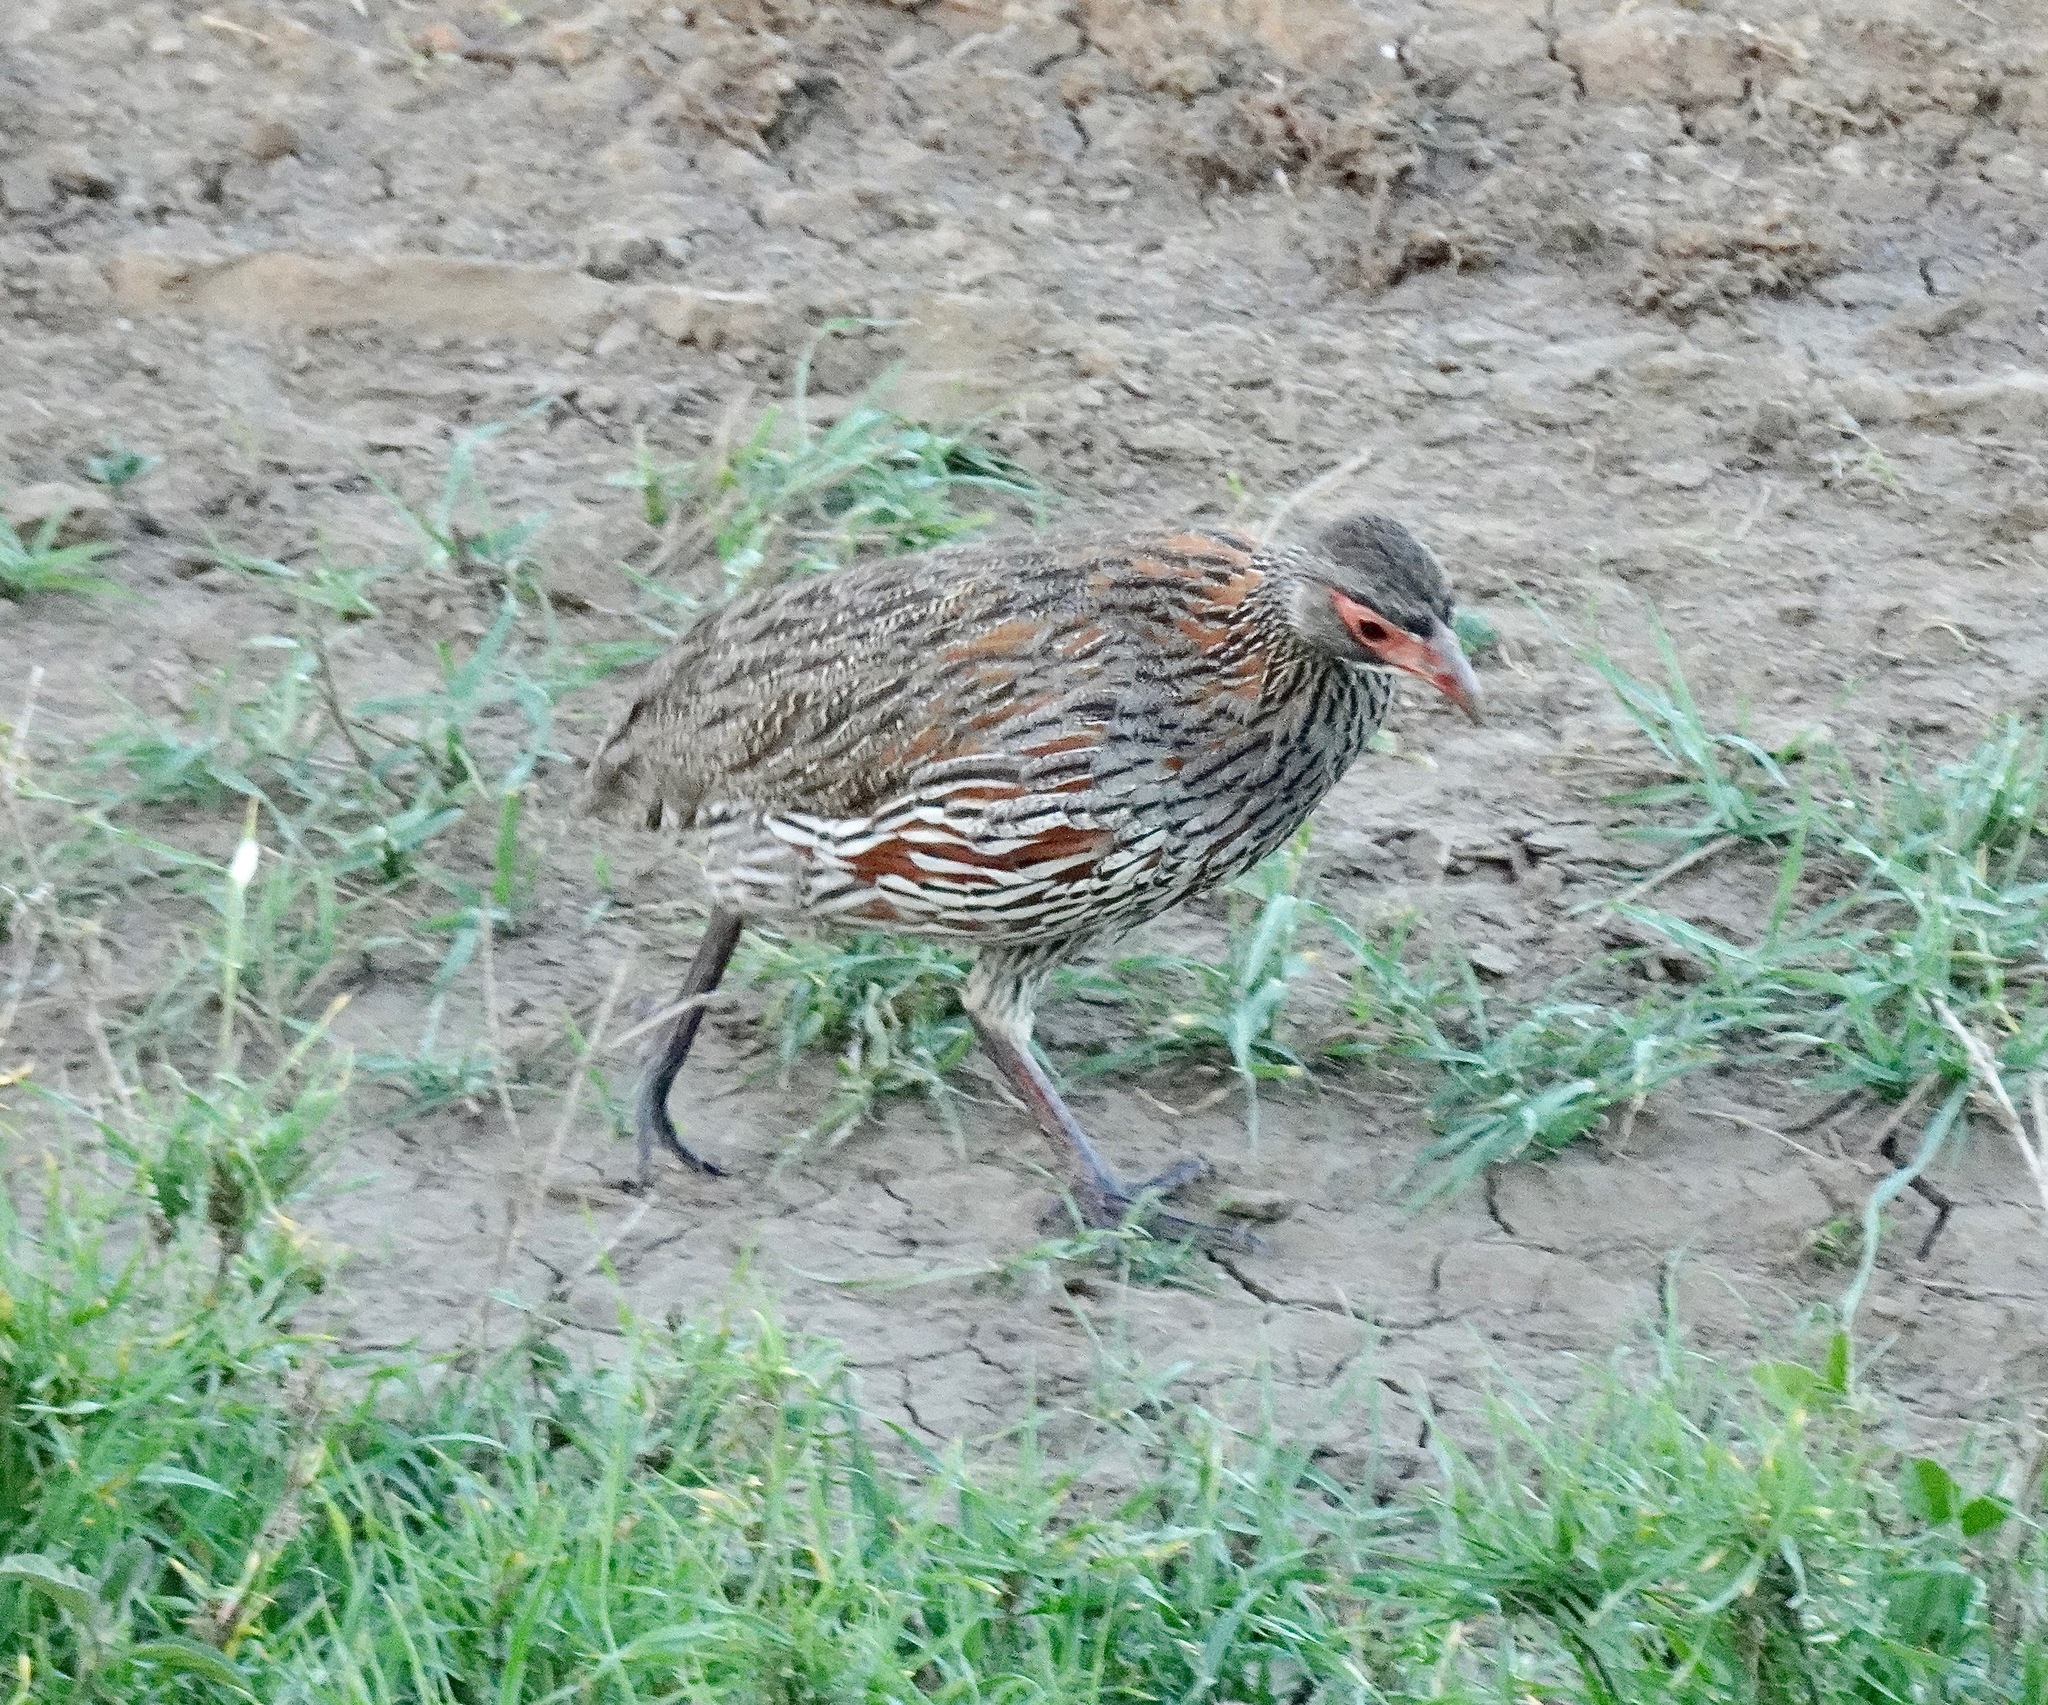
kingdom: Animalia
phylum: Chordata
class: Aves
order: Galliformes
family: Phasianidae
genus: Pternistis
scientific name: Pternistis rufopictus
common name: Grey-breasted spurfowl
